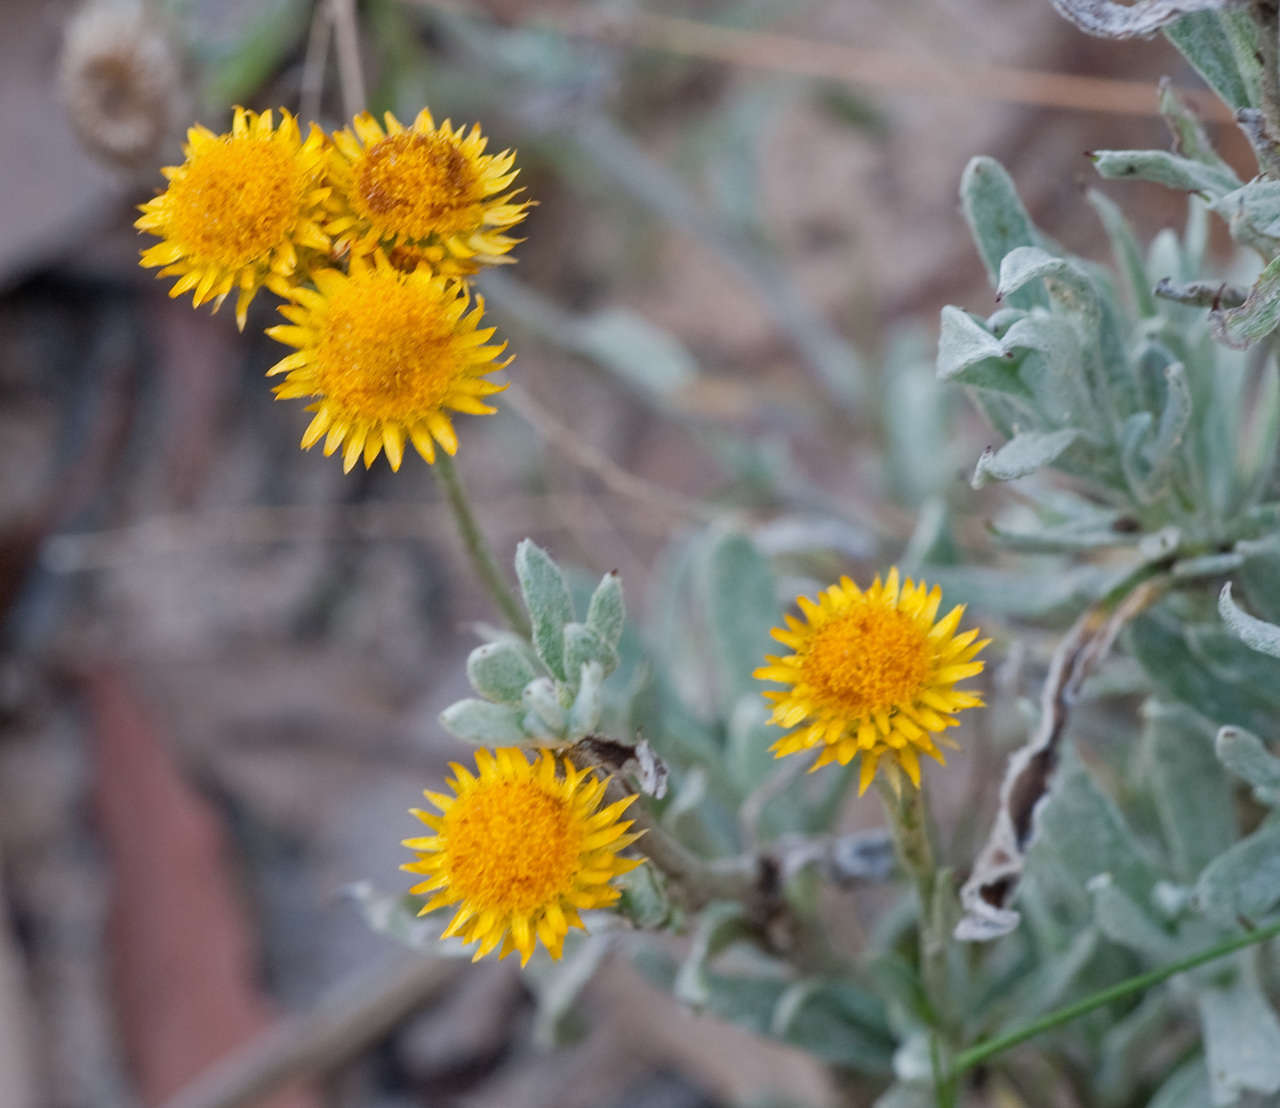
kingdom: Plantae
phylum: Tracheophyta
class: Magnoliopsida
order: Asterales
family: Asteraceae
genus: Chrysocephalum
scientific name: Chrysocephalum apiculatum
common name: Common everlasting
